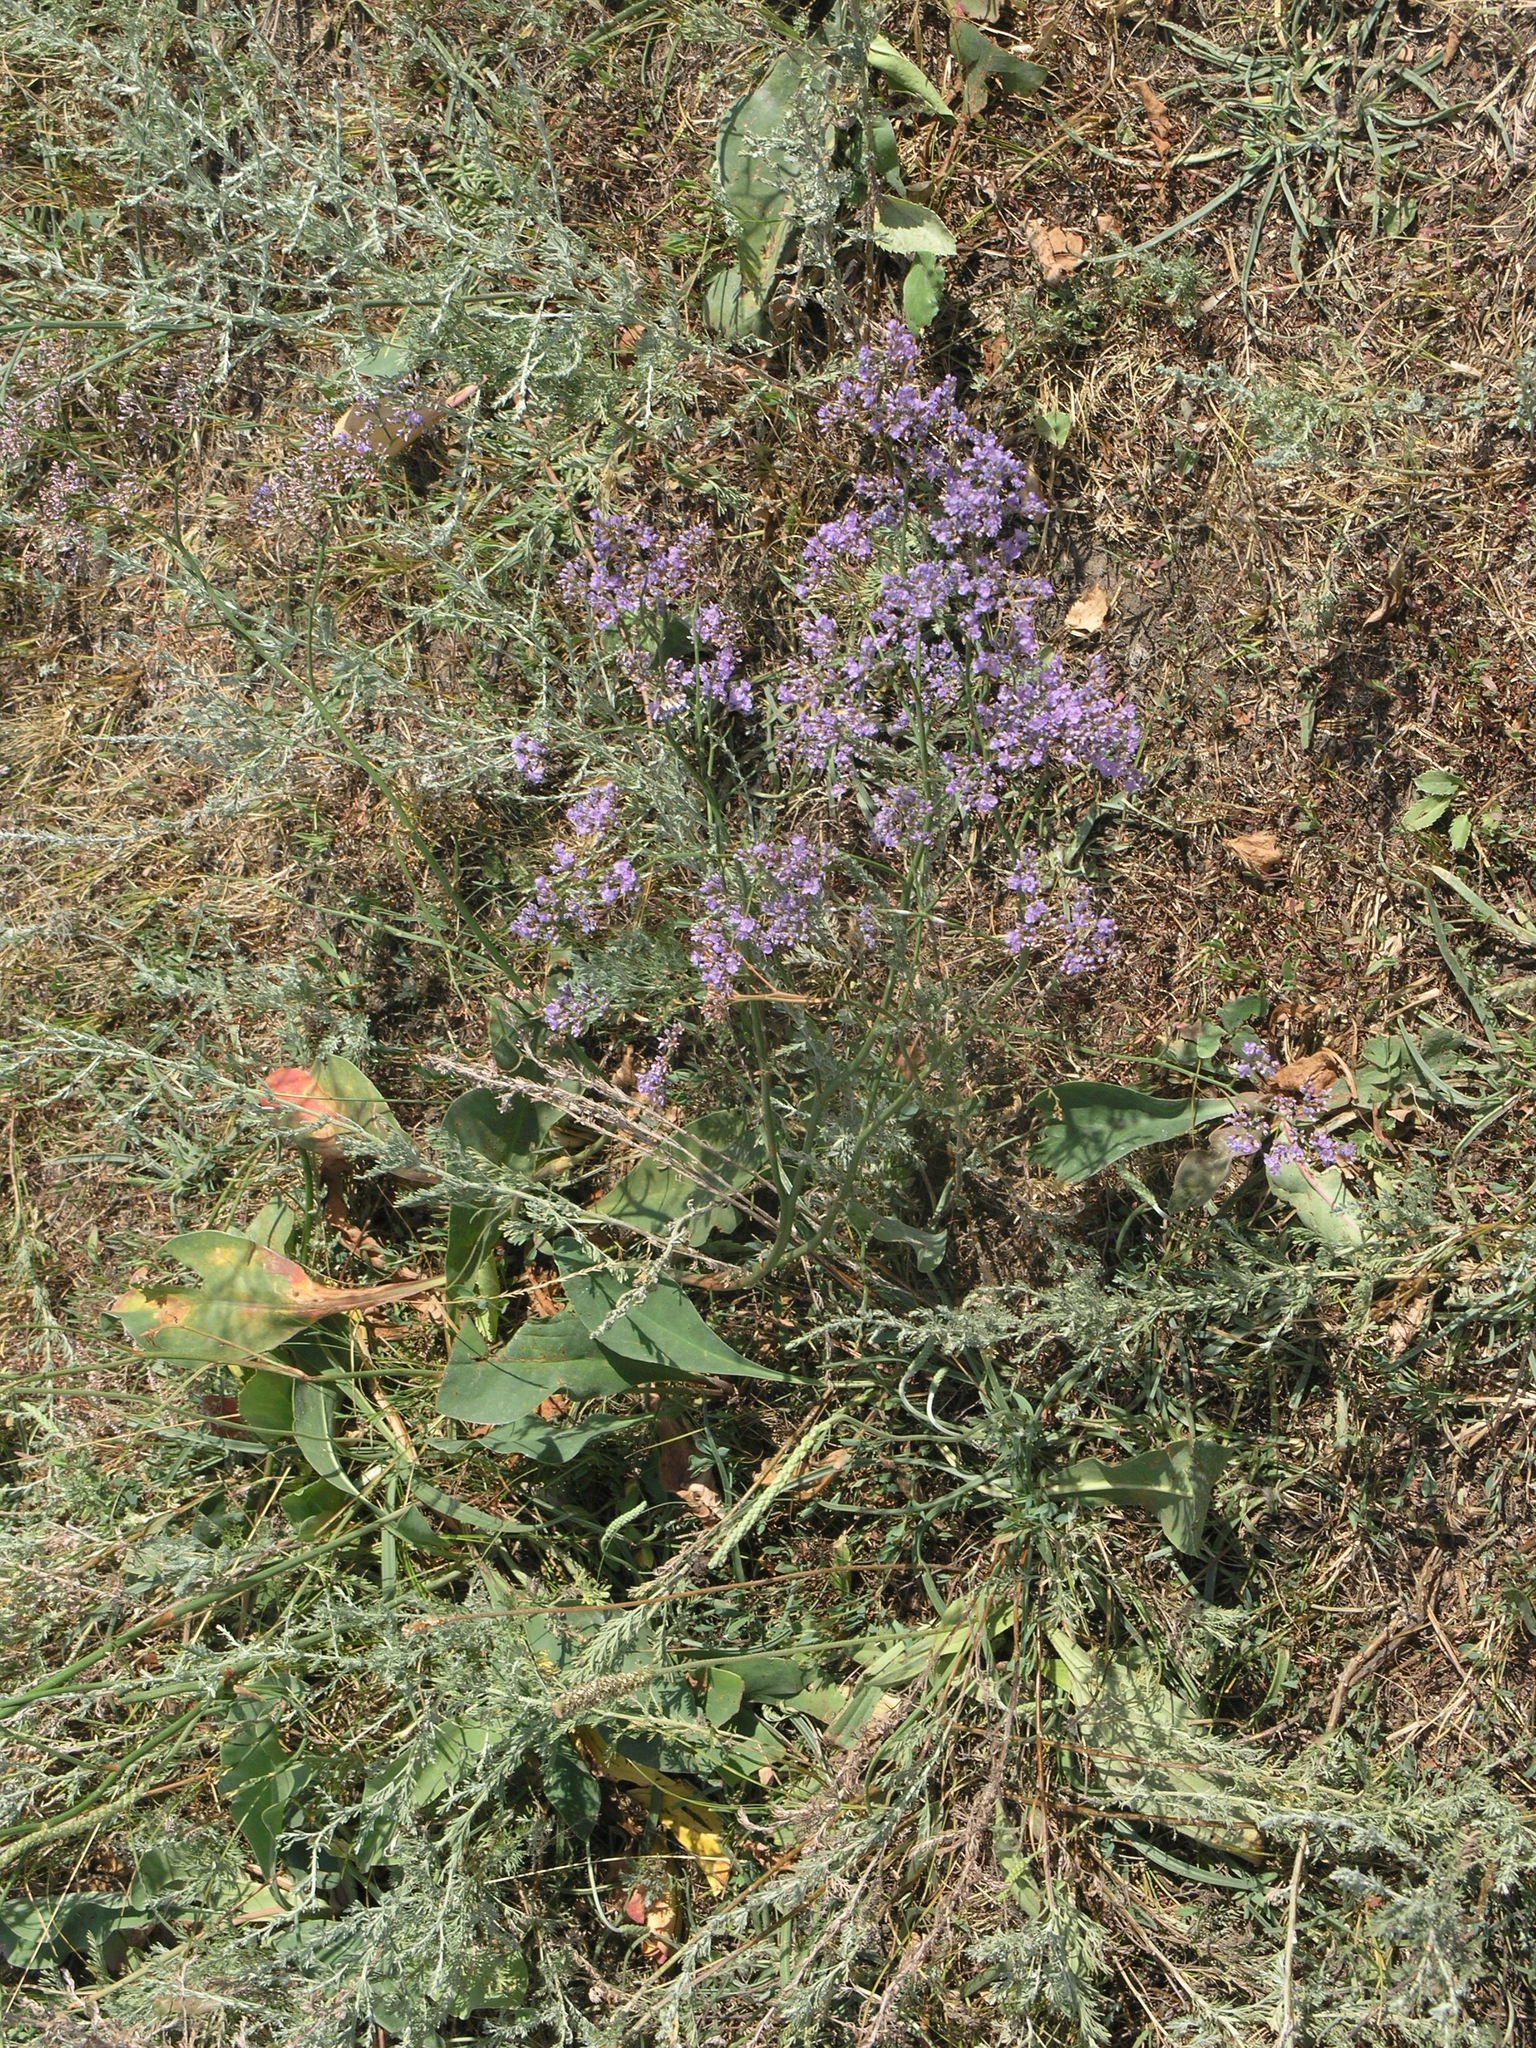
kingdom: Plantae
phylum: Tracheophyta
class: Magnoliopsida
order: Caryophyllales
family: Plumbaginaceae
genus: Limonium
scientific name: Limonium gmelini
